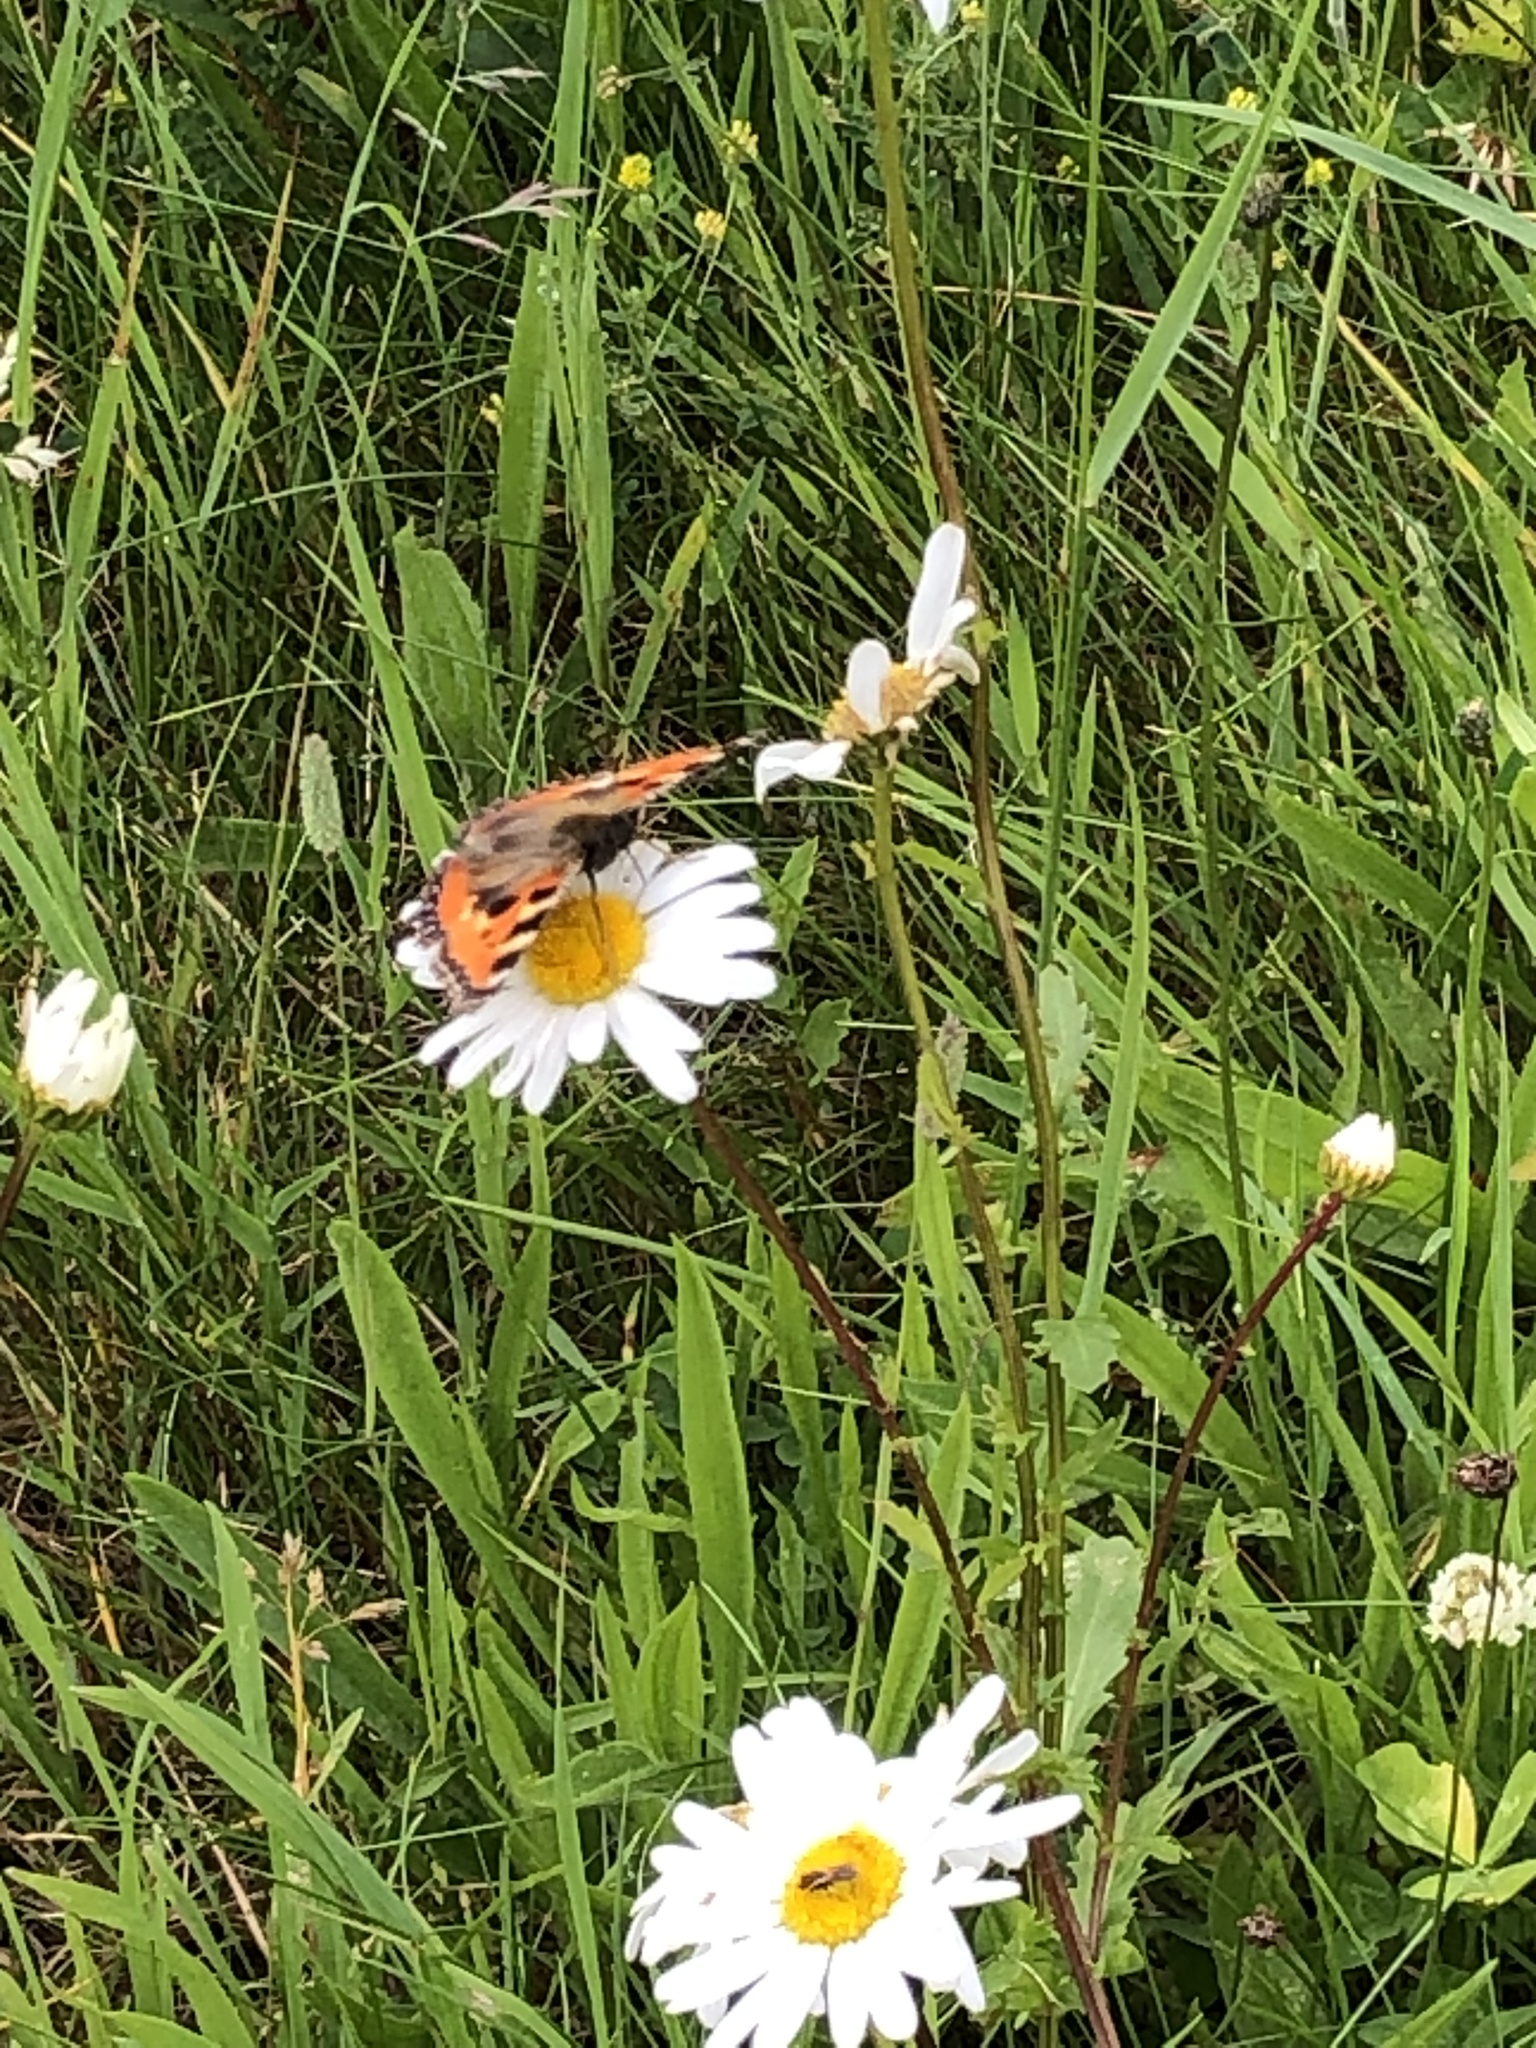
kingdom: Animalia
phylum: Arthropoda
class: Insecta
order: Lepidoptera
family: Nymphalidae
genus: Aglais
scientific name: Aglais urticae
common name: Small tortoiseshell
